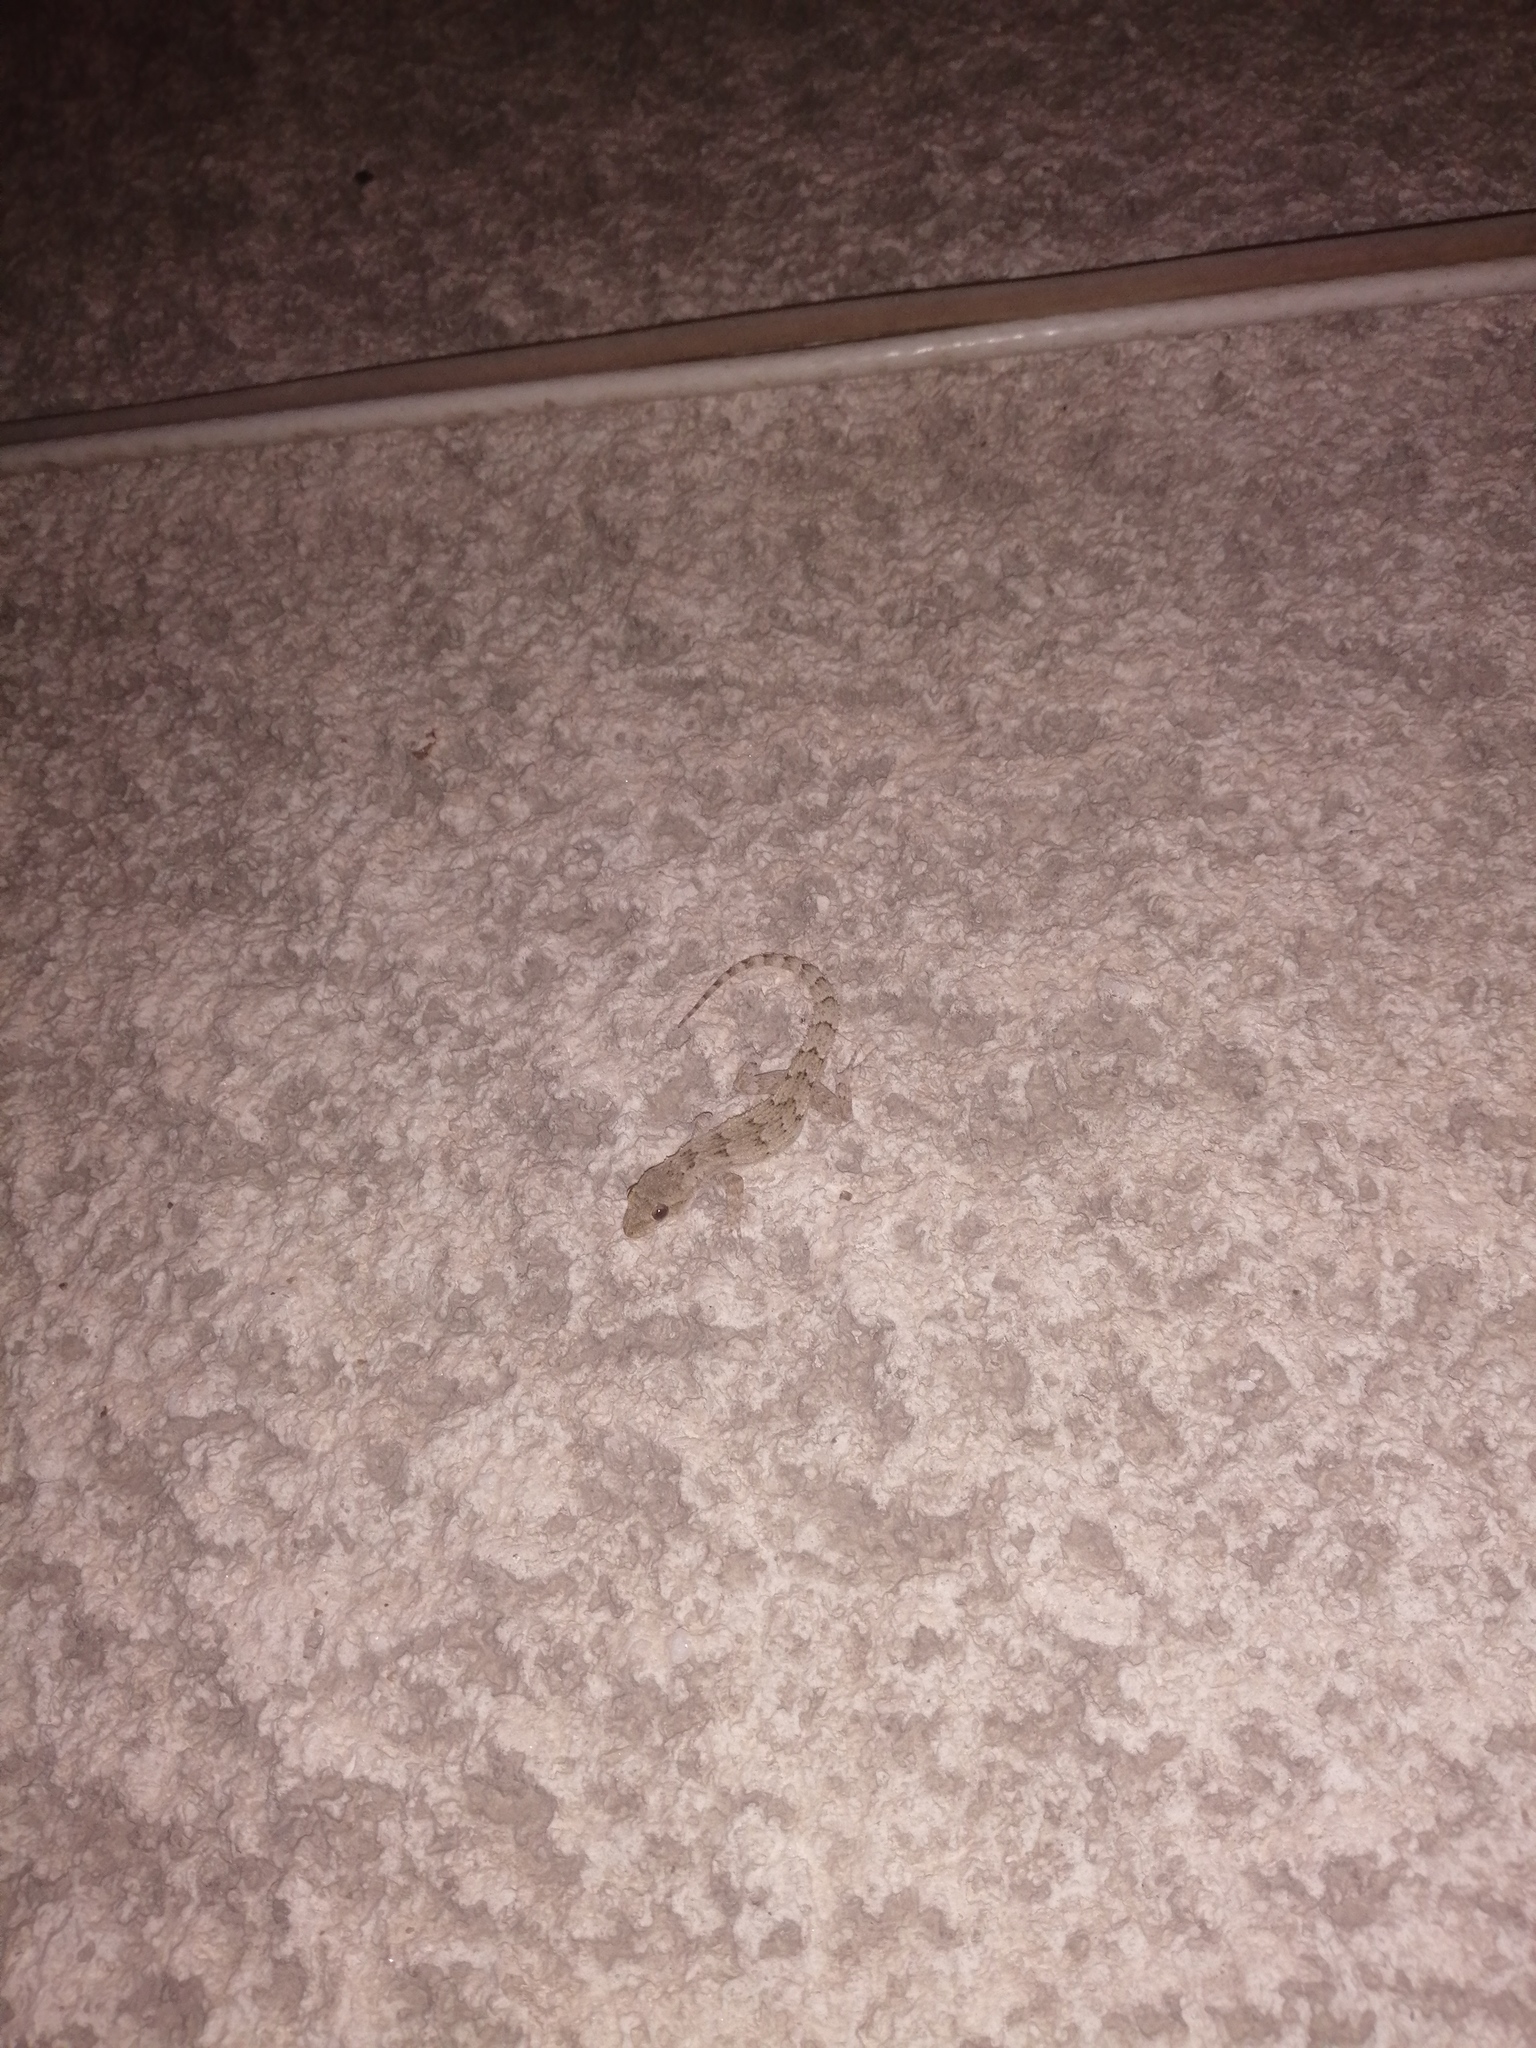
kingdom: Animalia
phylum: Chordata
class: Squamata
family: Gekkonidae
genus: Mediodactylus
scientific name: Mediodactylus danilewskii
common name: Bulgarian bent-toed gecko
